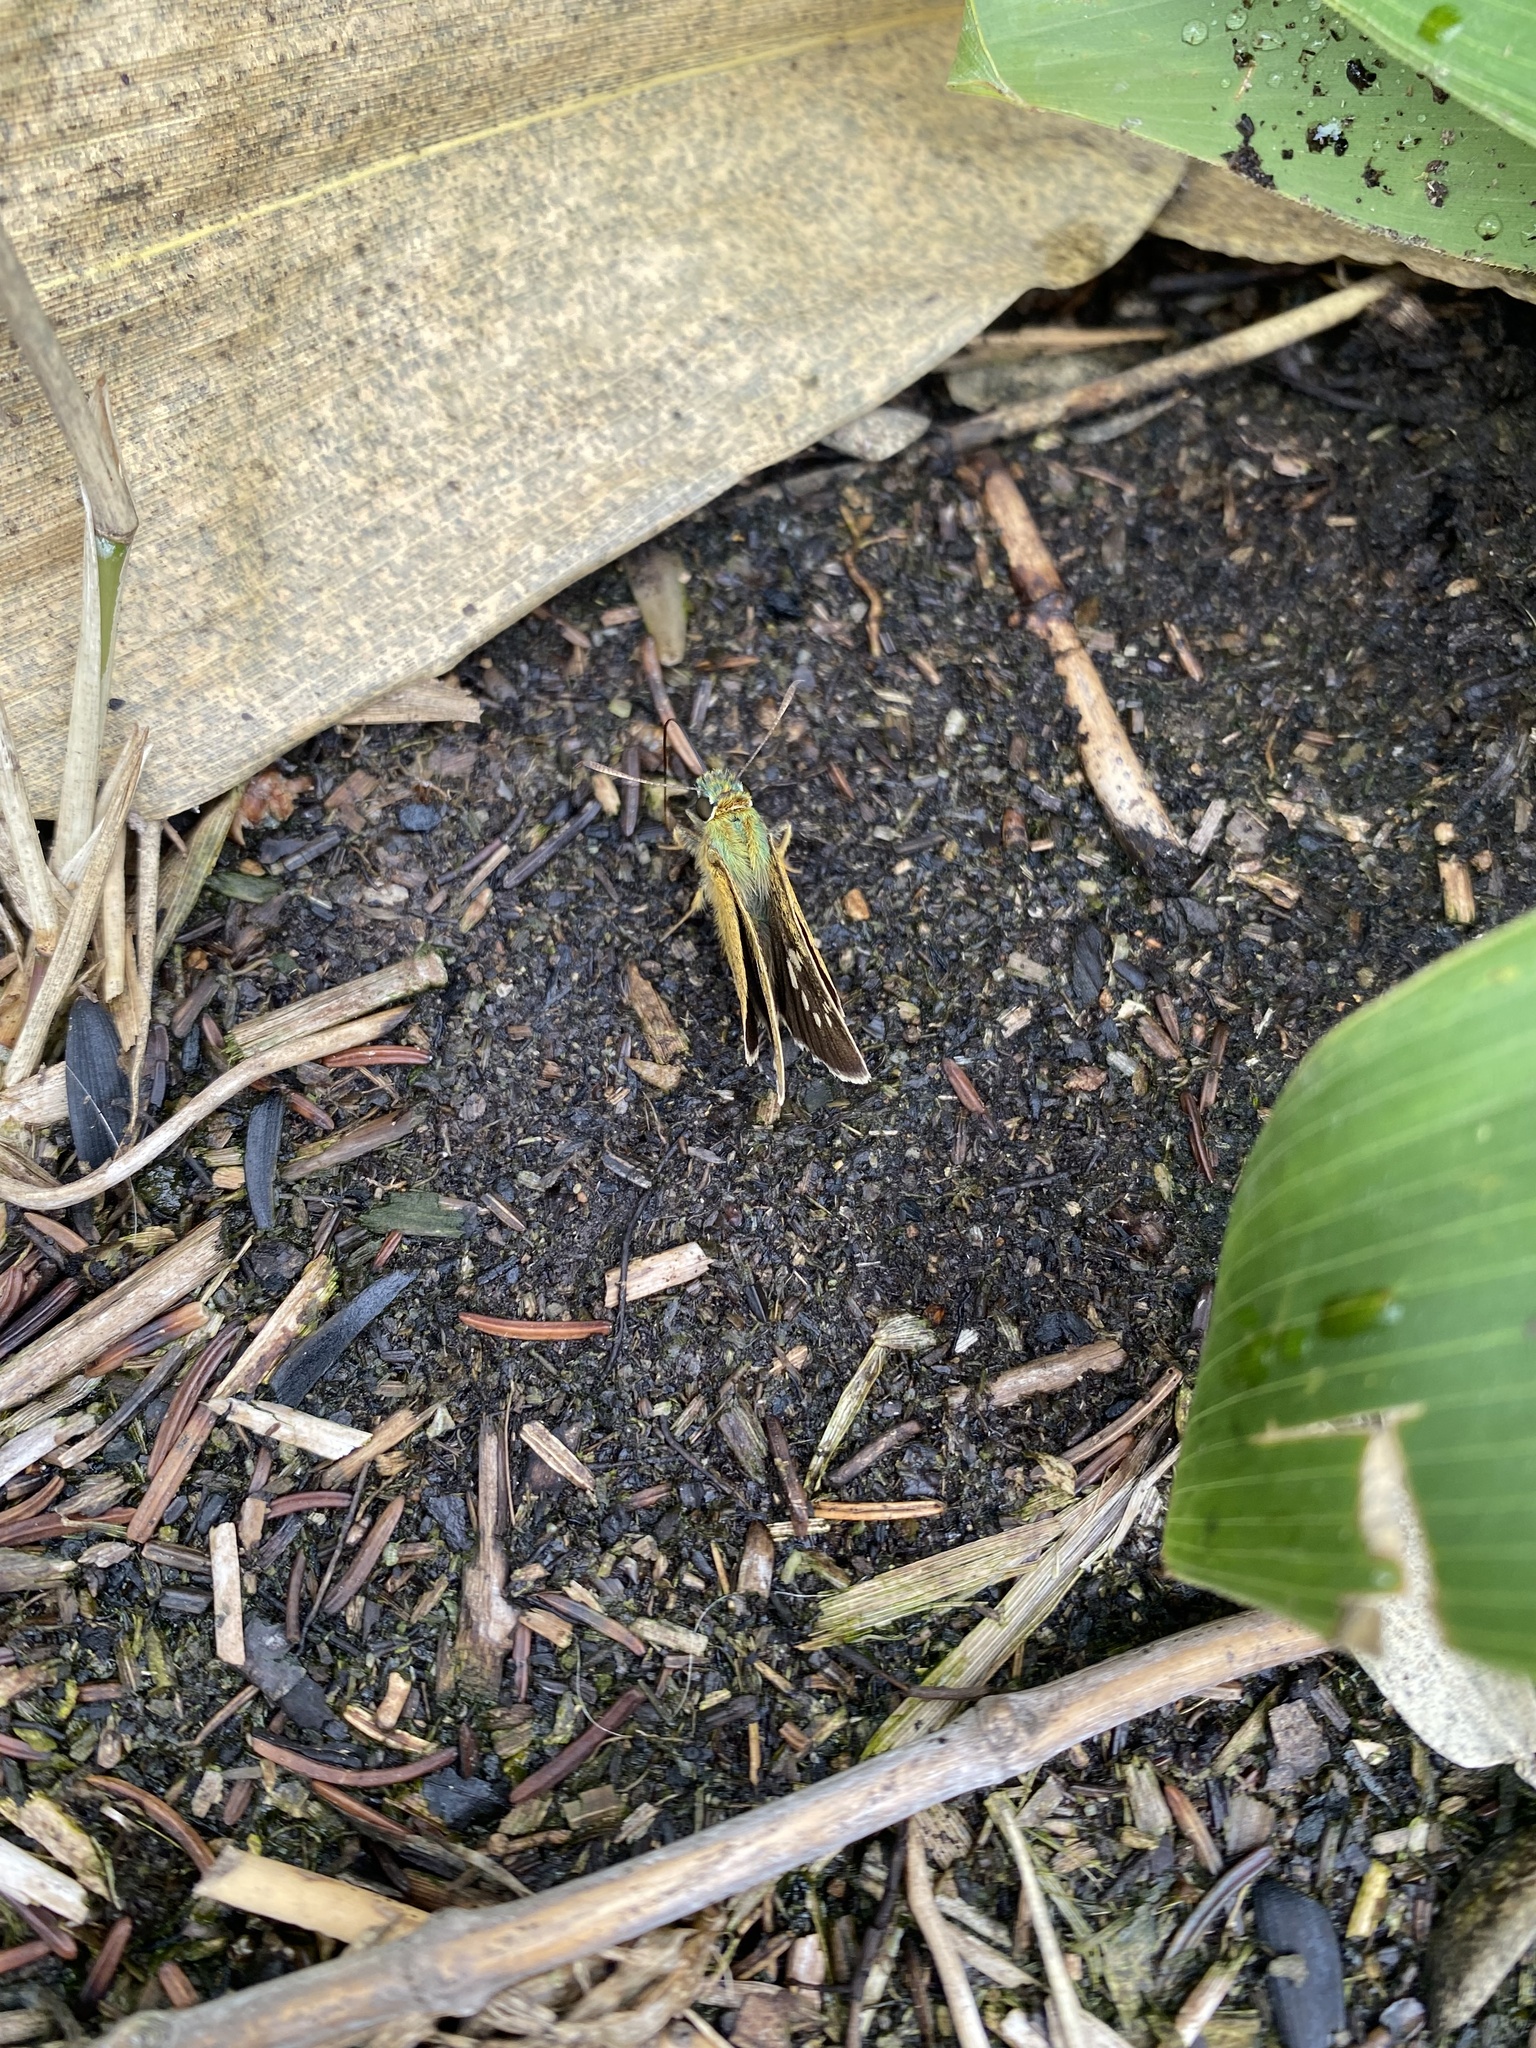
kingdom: Animalia
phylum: Arthropoda
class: Insecta
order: Lepidoptera
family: Hesperiidae
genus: Polytremis
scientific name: Polytremis pellucida
